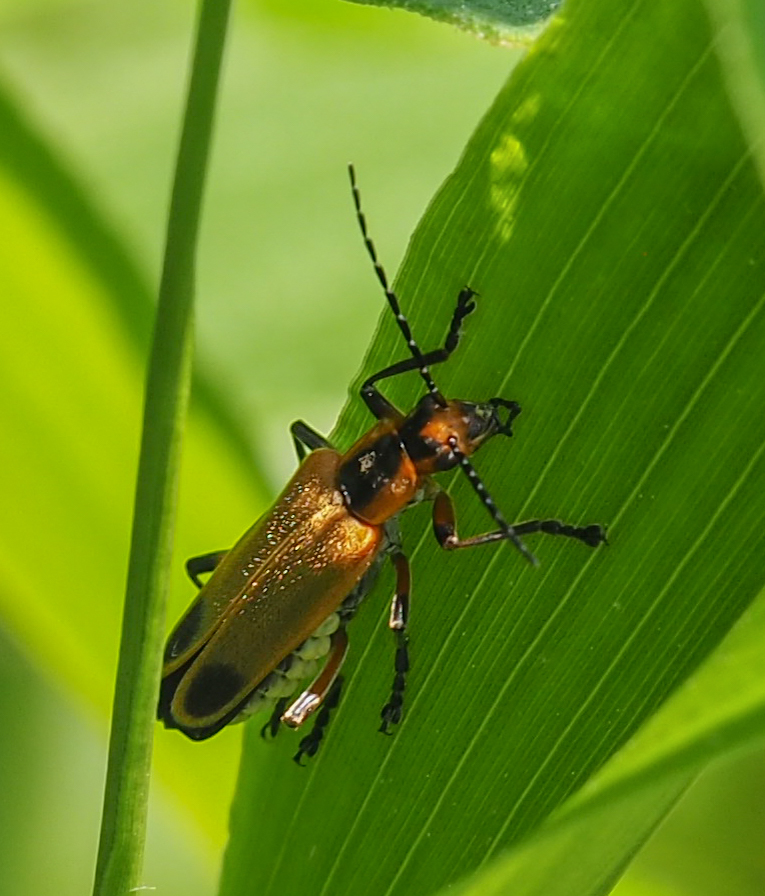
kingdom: Animalia
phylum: Arthropoda
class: Insecta
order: Coleoptera
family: Cantharidae
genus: Chauliognathus
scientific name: Chauliognathus marginatus
